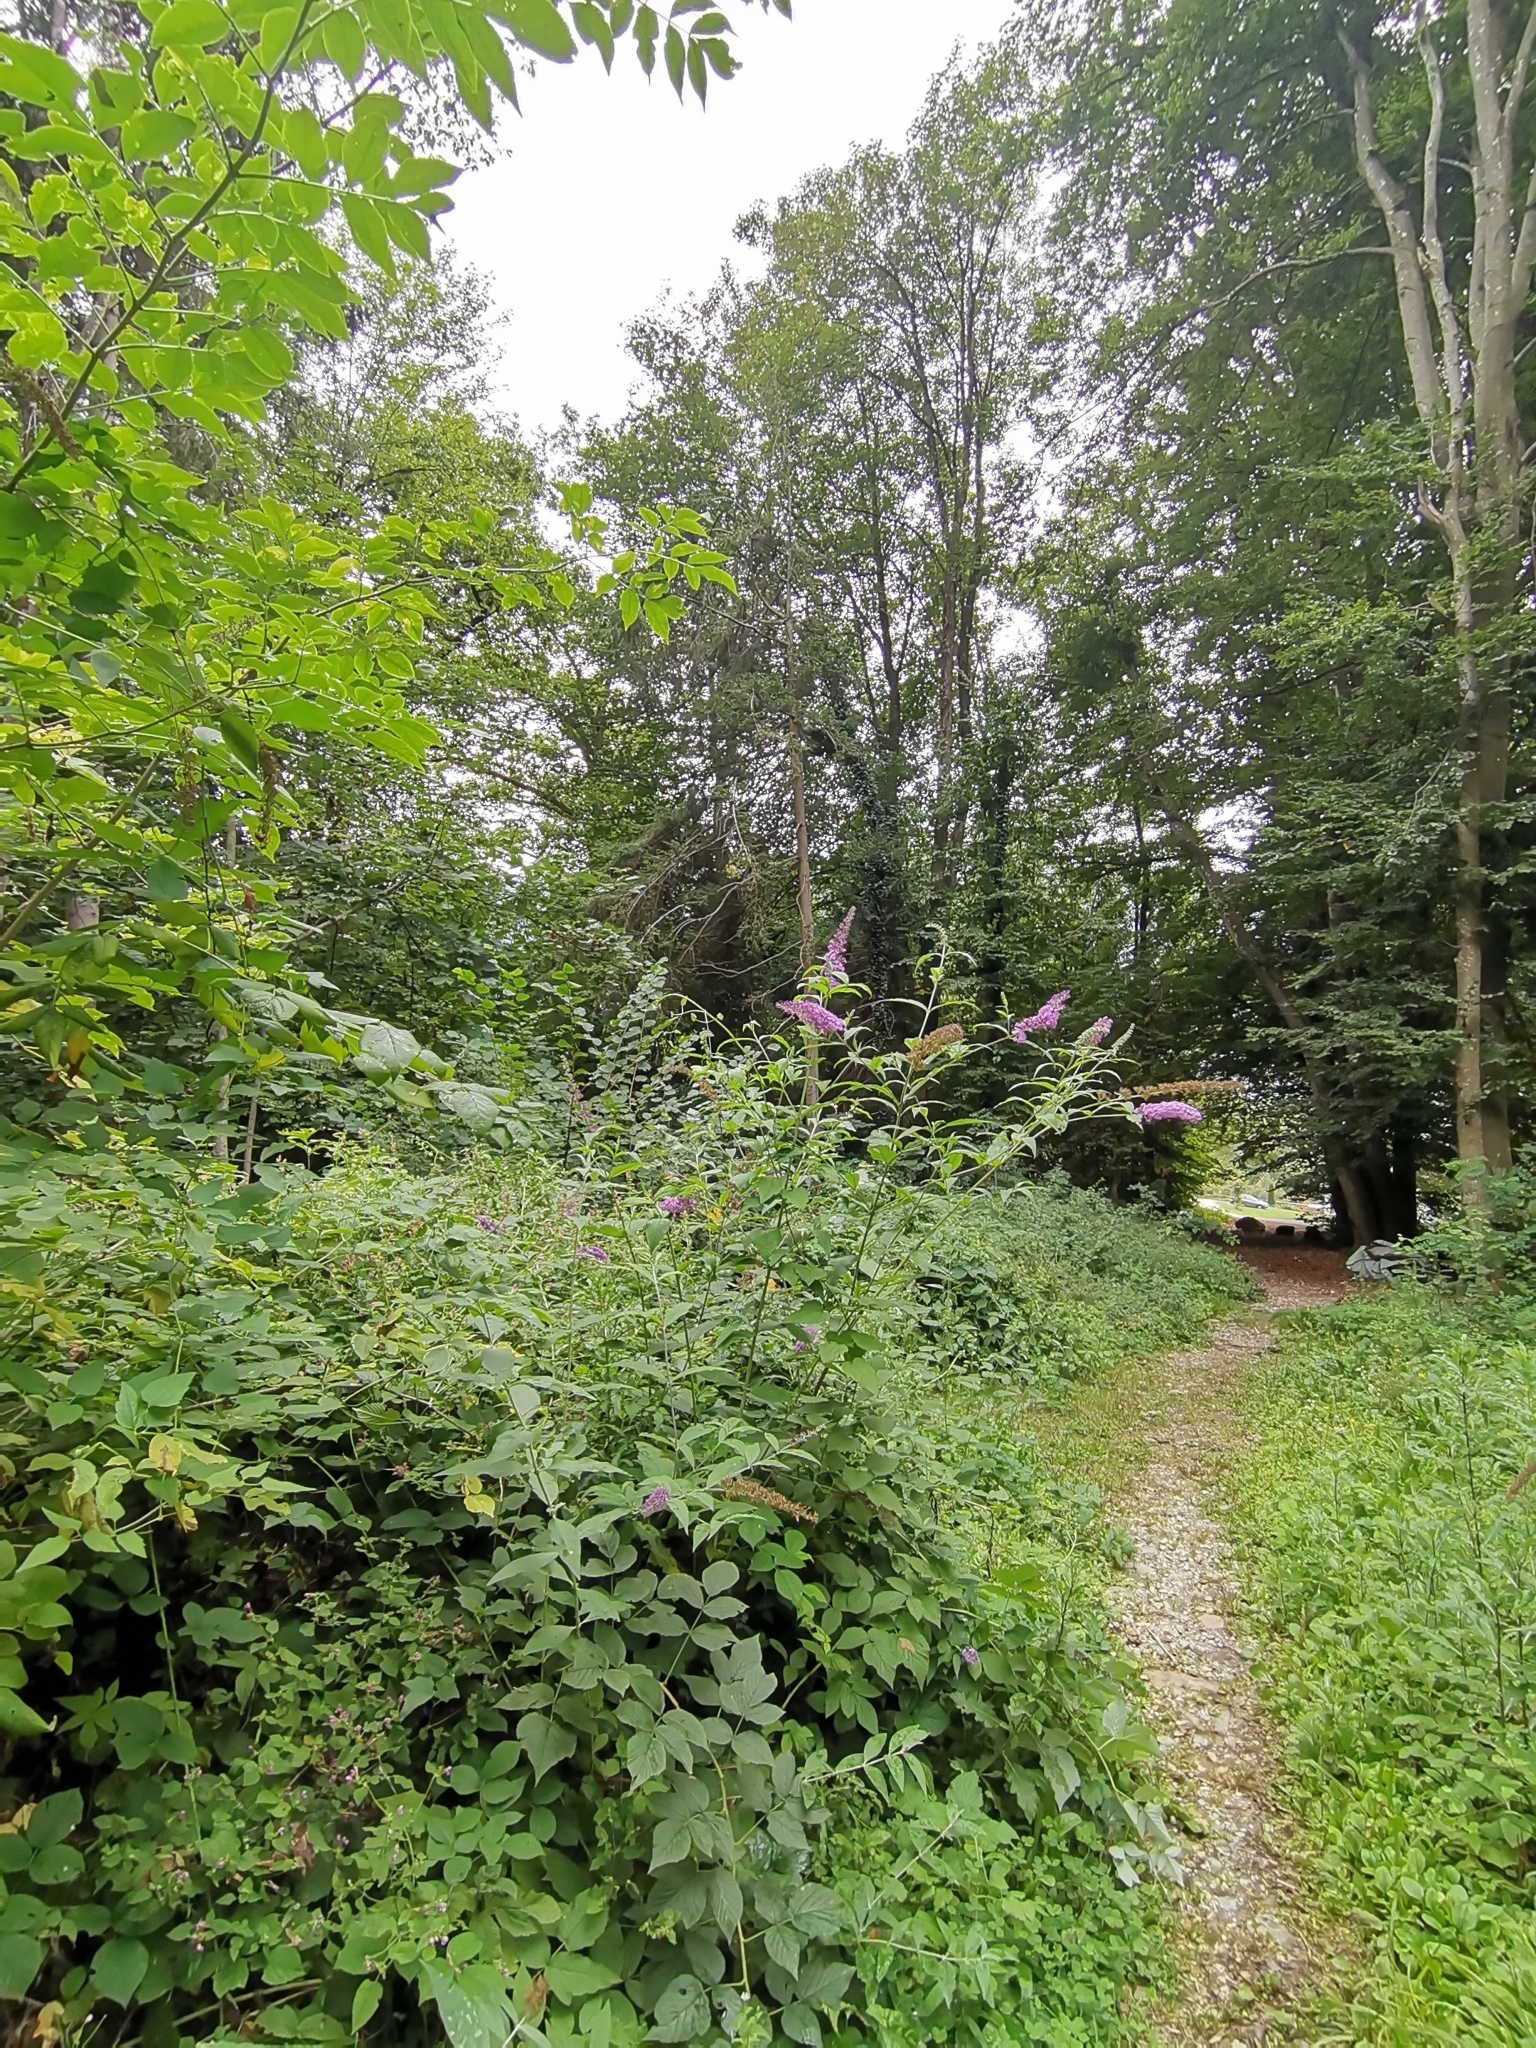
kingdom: Plantae
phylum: Tracheophyta
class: Magnoliopsida
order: Lamiales
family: Scrophulariaceae
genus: Buddleja
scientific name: Buddleja davidii
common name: Butterfly-bush
